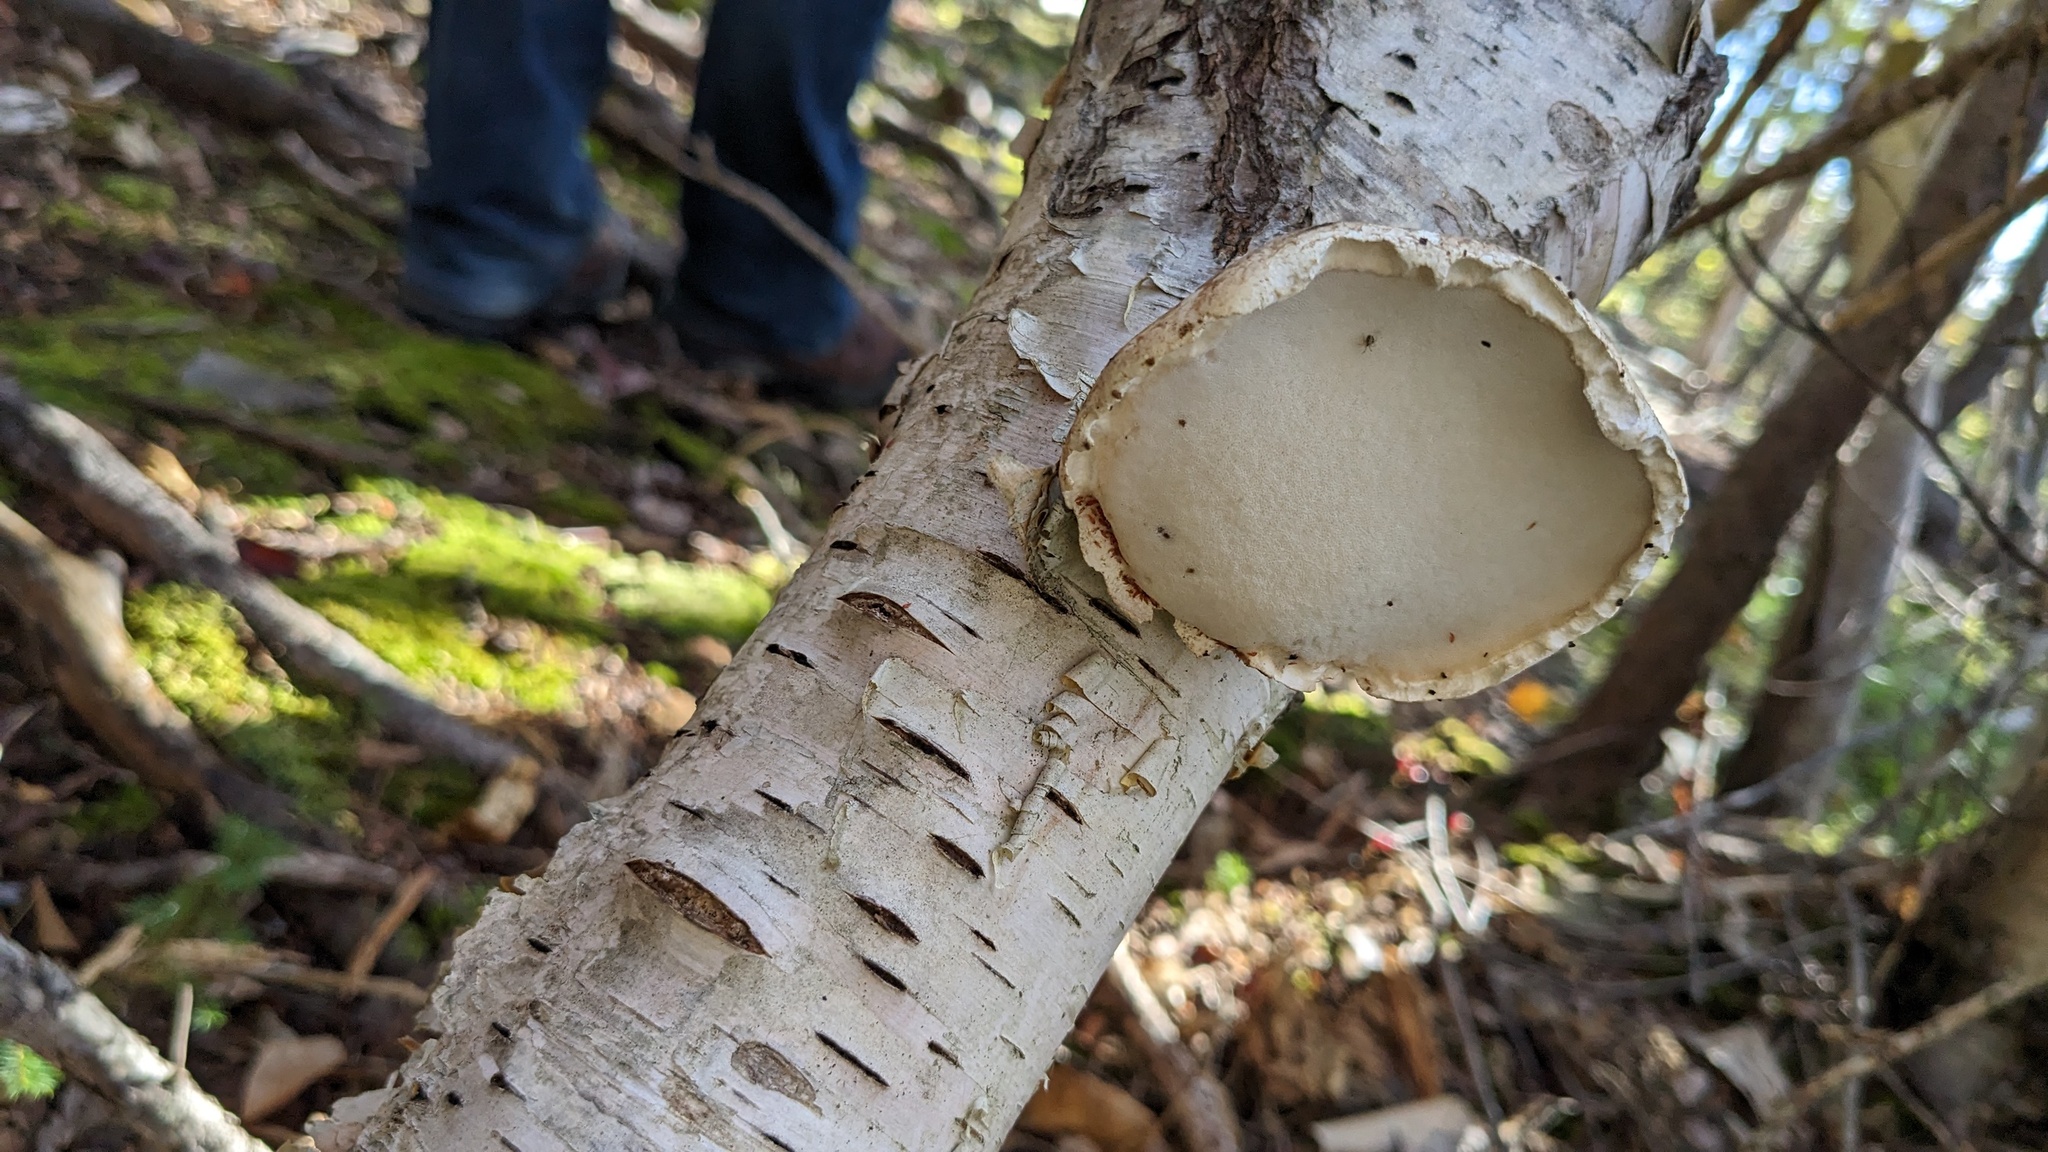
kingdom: Fungi
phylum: Basidiomycota
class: Agaricomycetes
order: Polyporales
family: Fomitopsidaceae
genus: Fomitopsis
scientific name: Fomitopsis betulina
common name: Birch polypore
